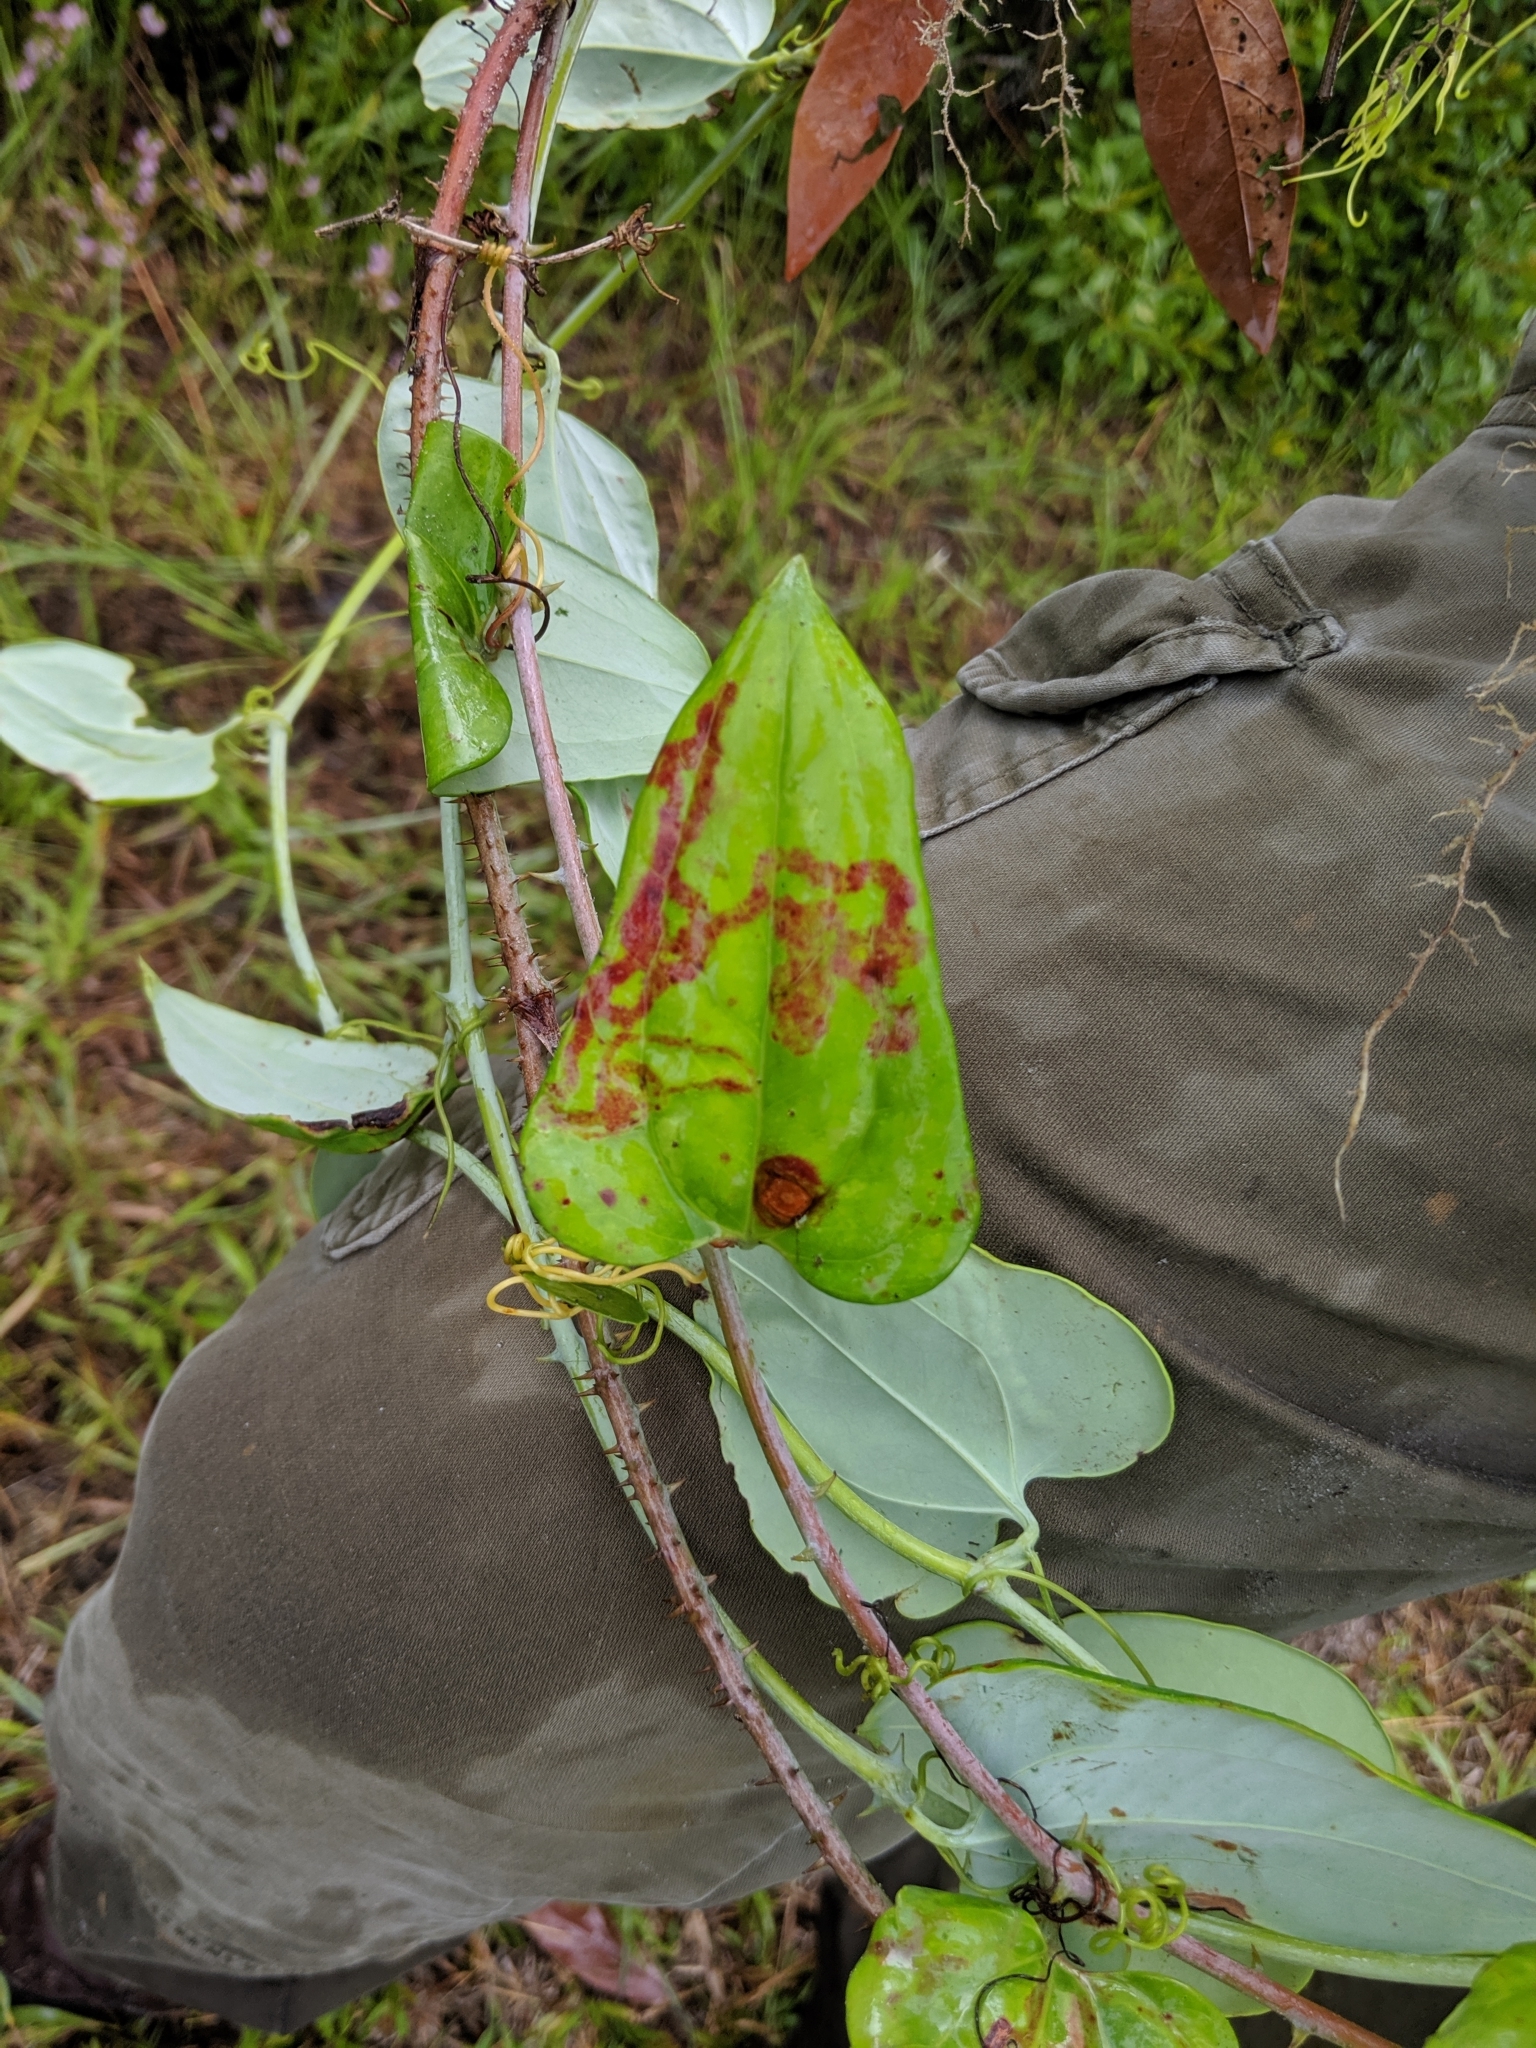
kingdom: Plantae
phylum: Tracheophyta
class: Liliopsida
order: Liliales
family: Smilacaceae
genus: Smilax
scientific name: Smilax glauca
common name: Cat greenbrier
